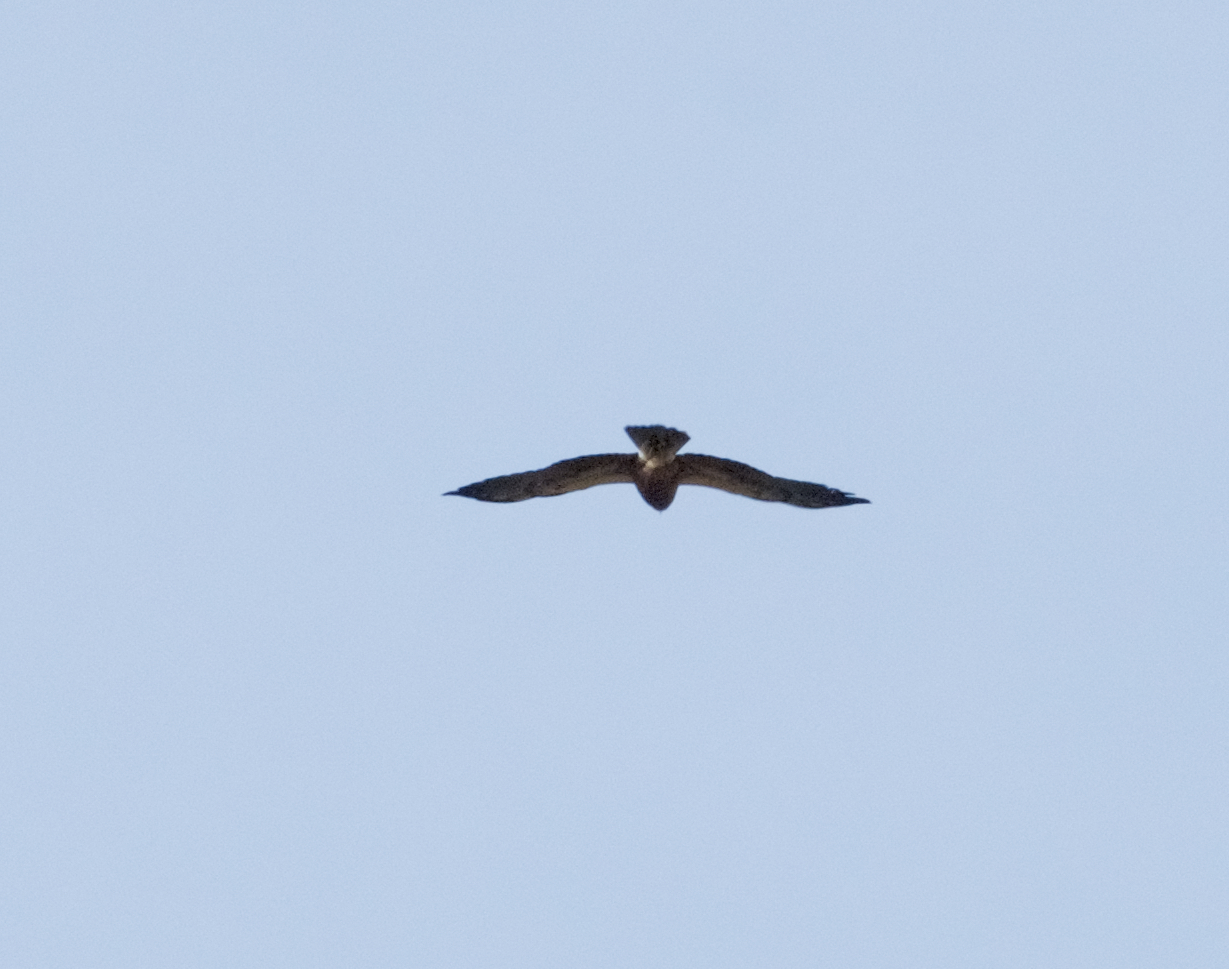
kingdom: Animalia
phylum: Chordata
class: Aves
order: Accipitriformes
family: Accipitridae
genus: Buteo
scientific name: Buteo swainsoni
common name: Swainson's hawk
